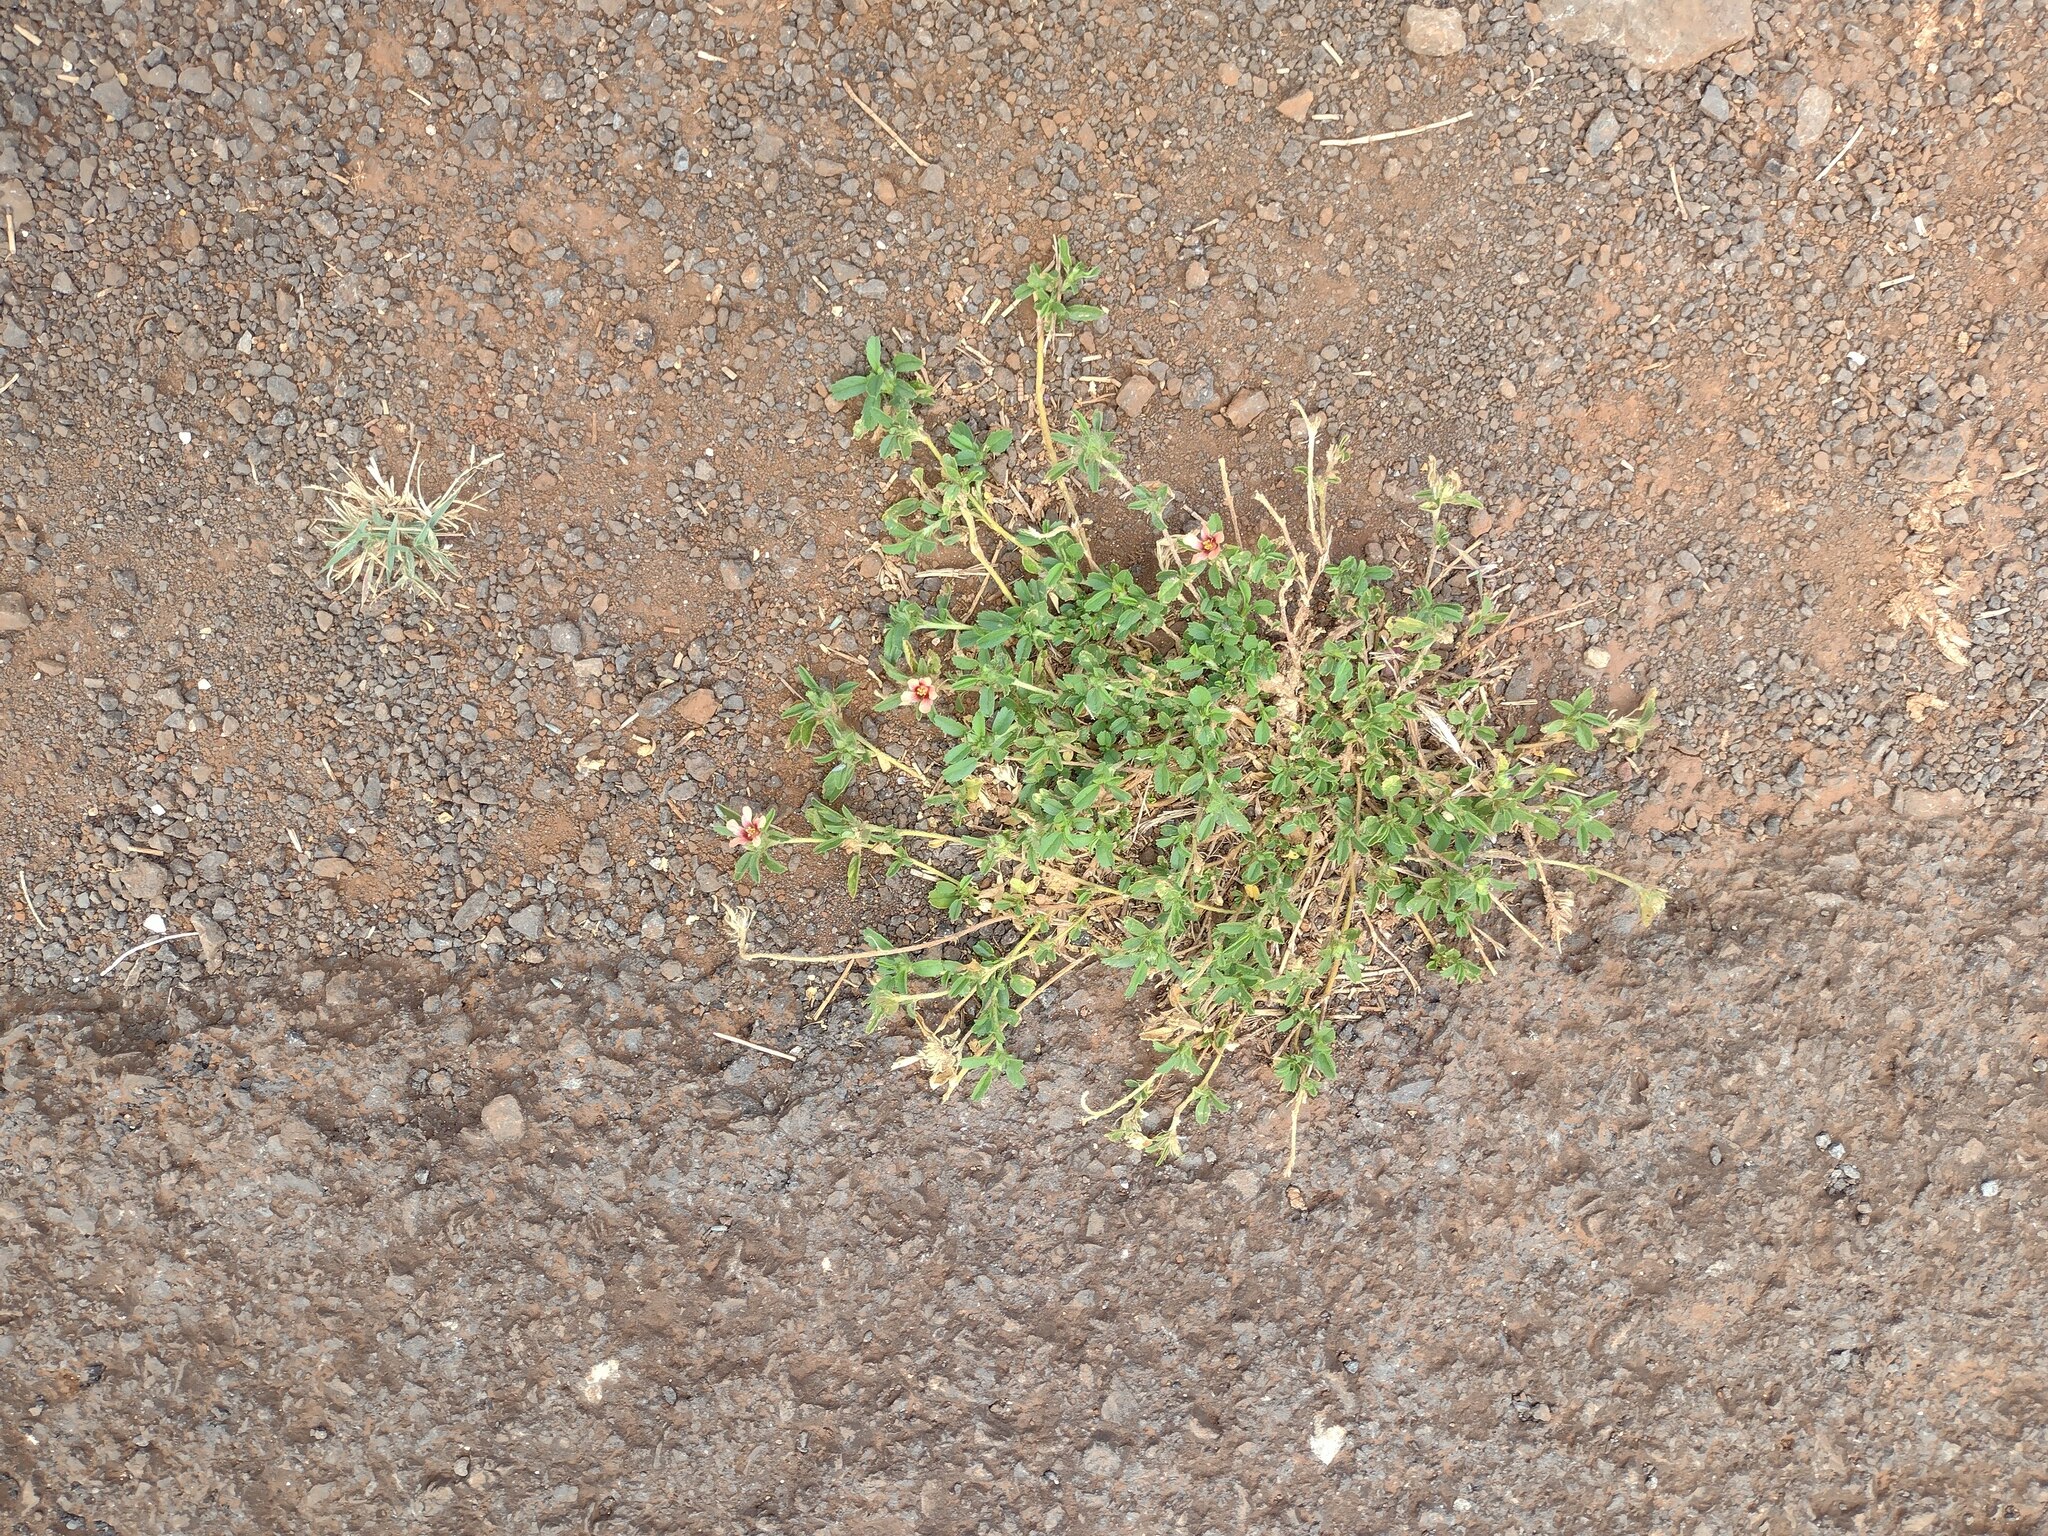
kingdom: Plantae
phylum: Tracheophyta
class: Magnoliopsida
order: Malvales
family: Malvaceae
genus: Sida
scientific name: Sida ciliaris
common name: Bracted fanpetals
